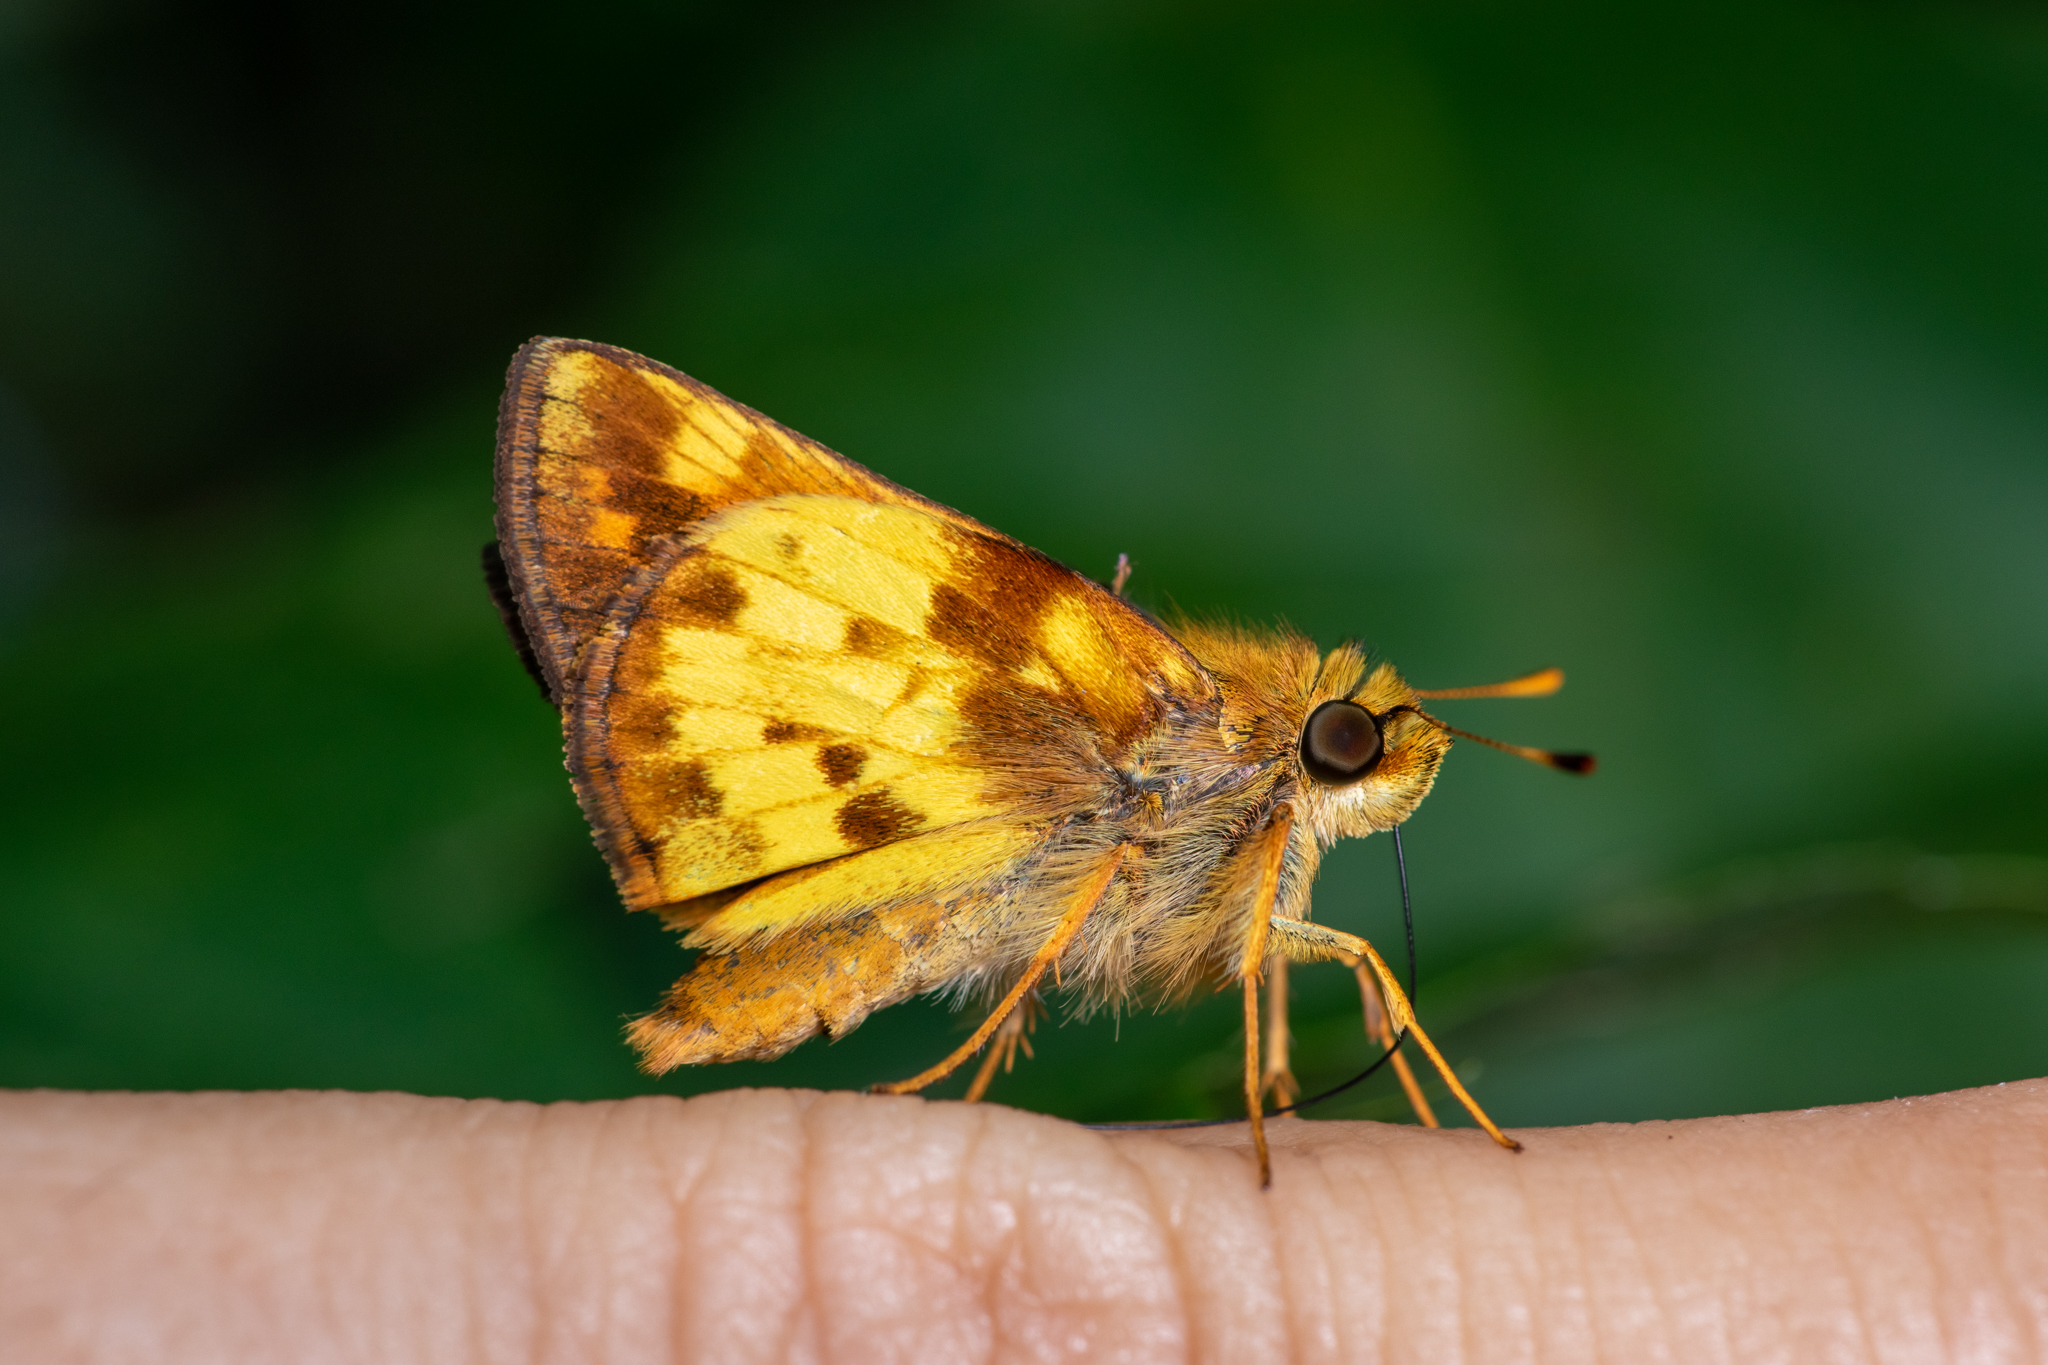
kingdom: Animalia
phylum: Arthropoda
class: Insecta
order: Lepidoptera
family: Hesperiidae
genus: Lon
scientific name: Lon zabulon
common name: Zabulon skipper
